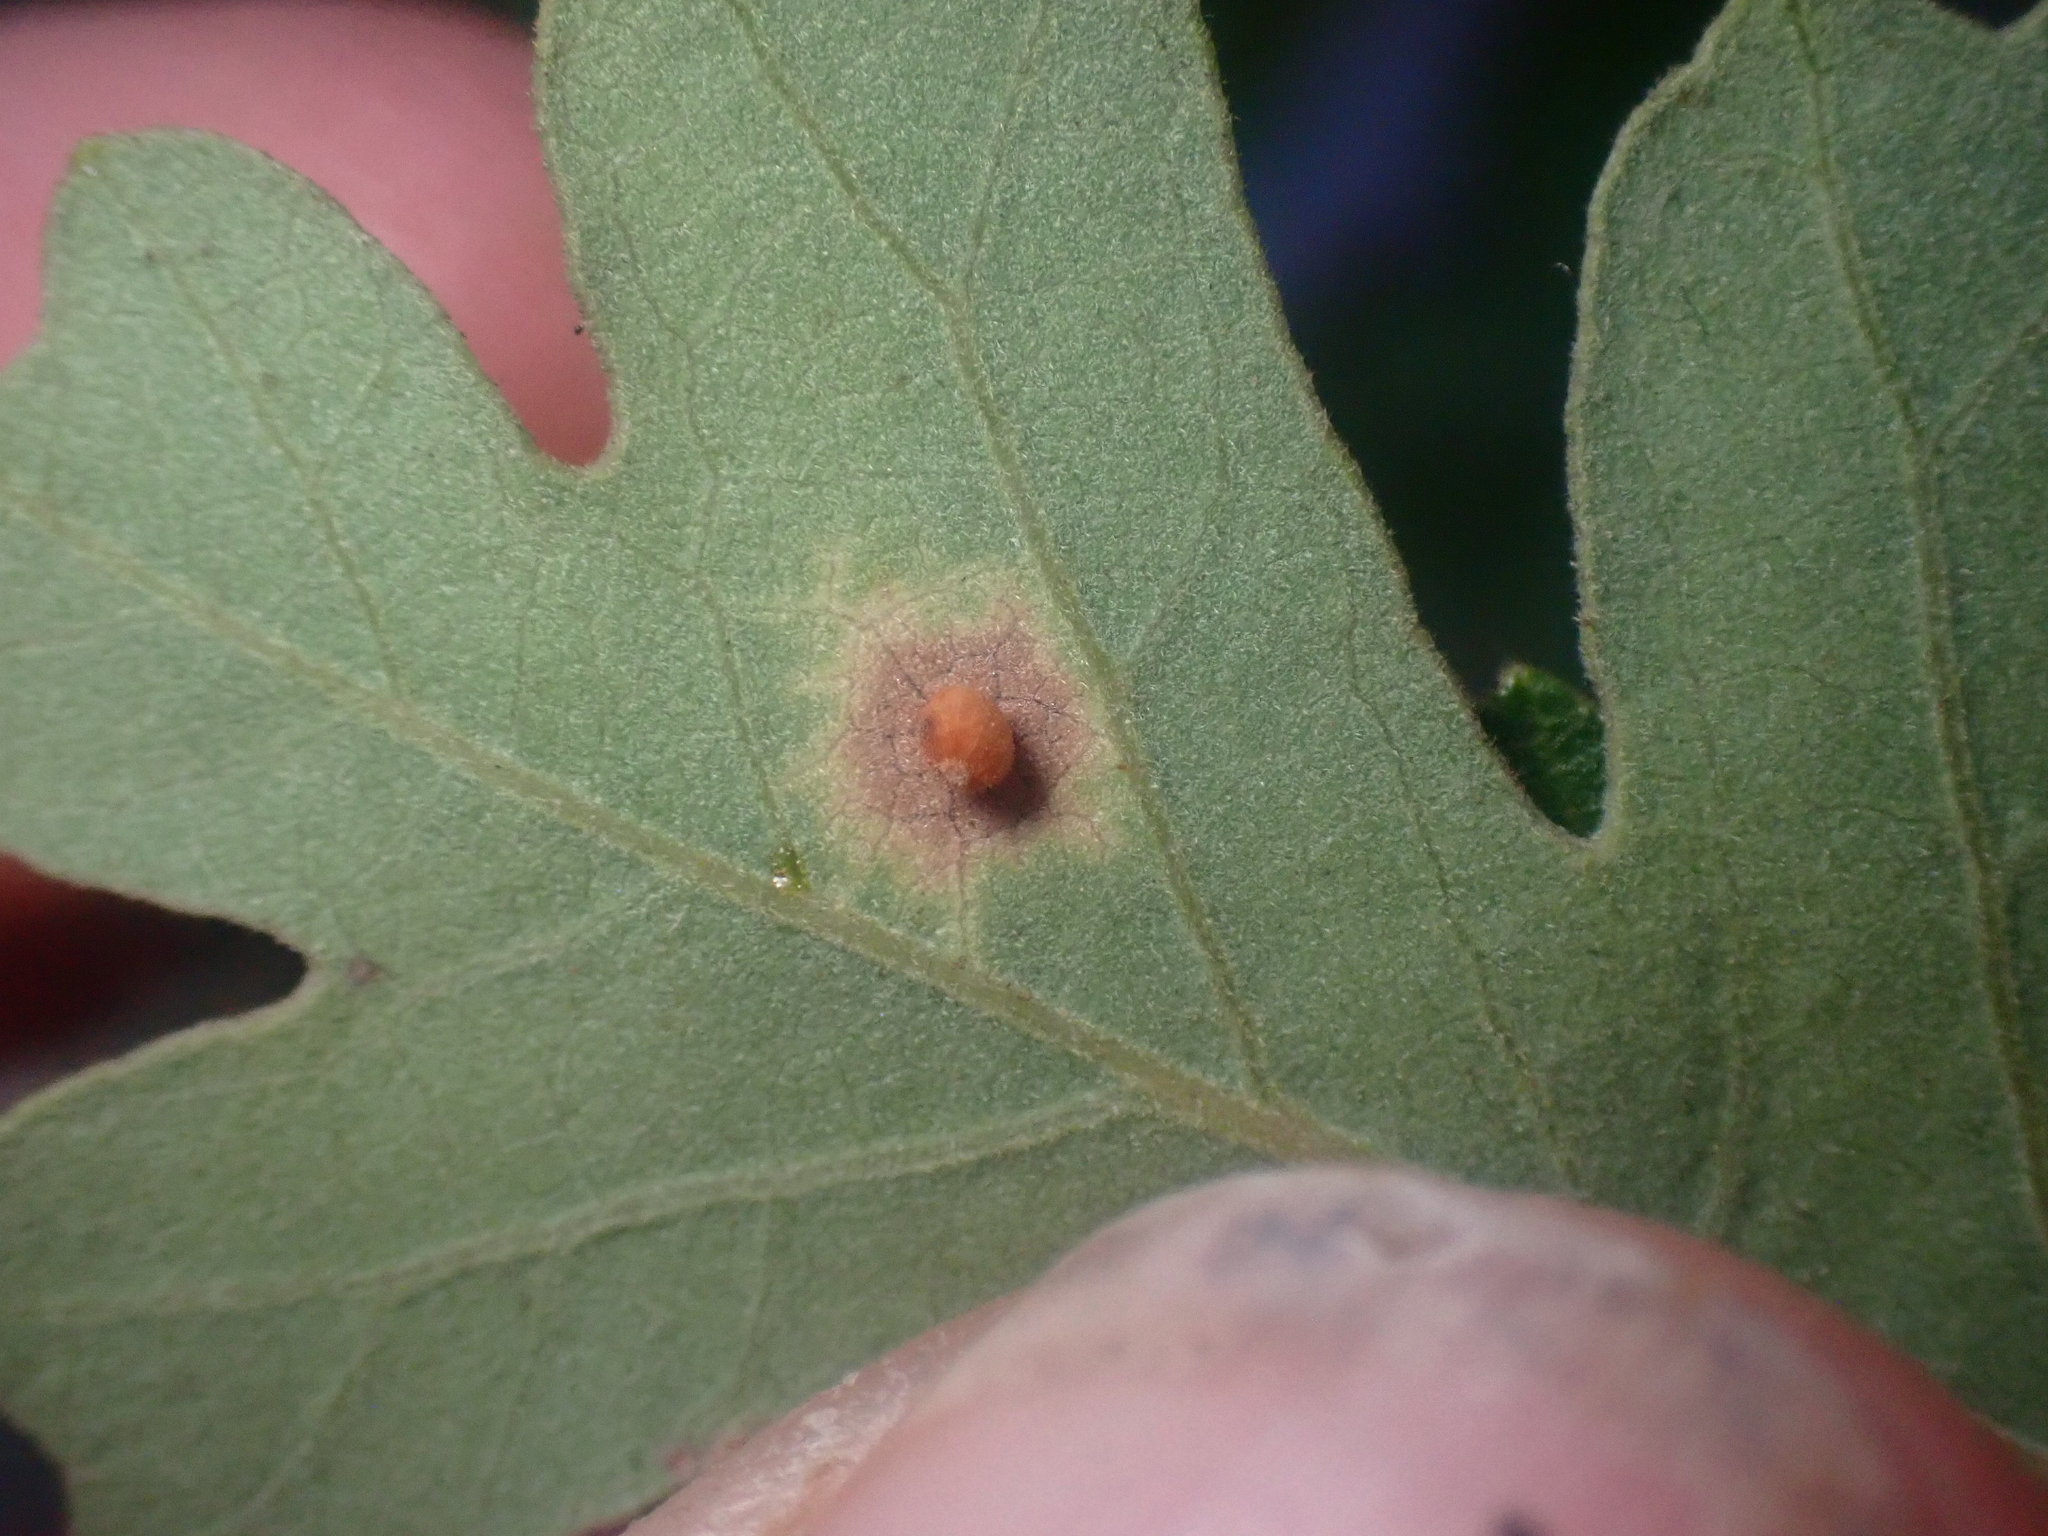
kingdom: Animalia
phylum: Arthropoda
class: Insecta
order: Hymenoptera
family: Cynipidae
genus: Neuroterus
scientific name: Neuroterus saltarius
